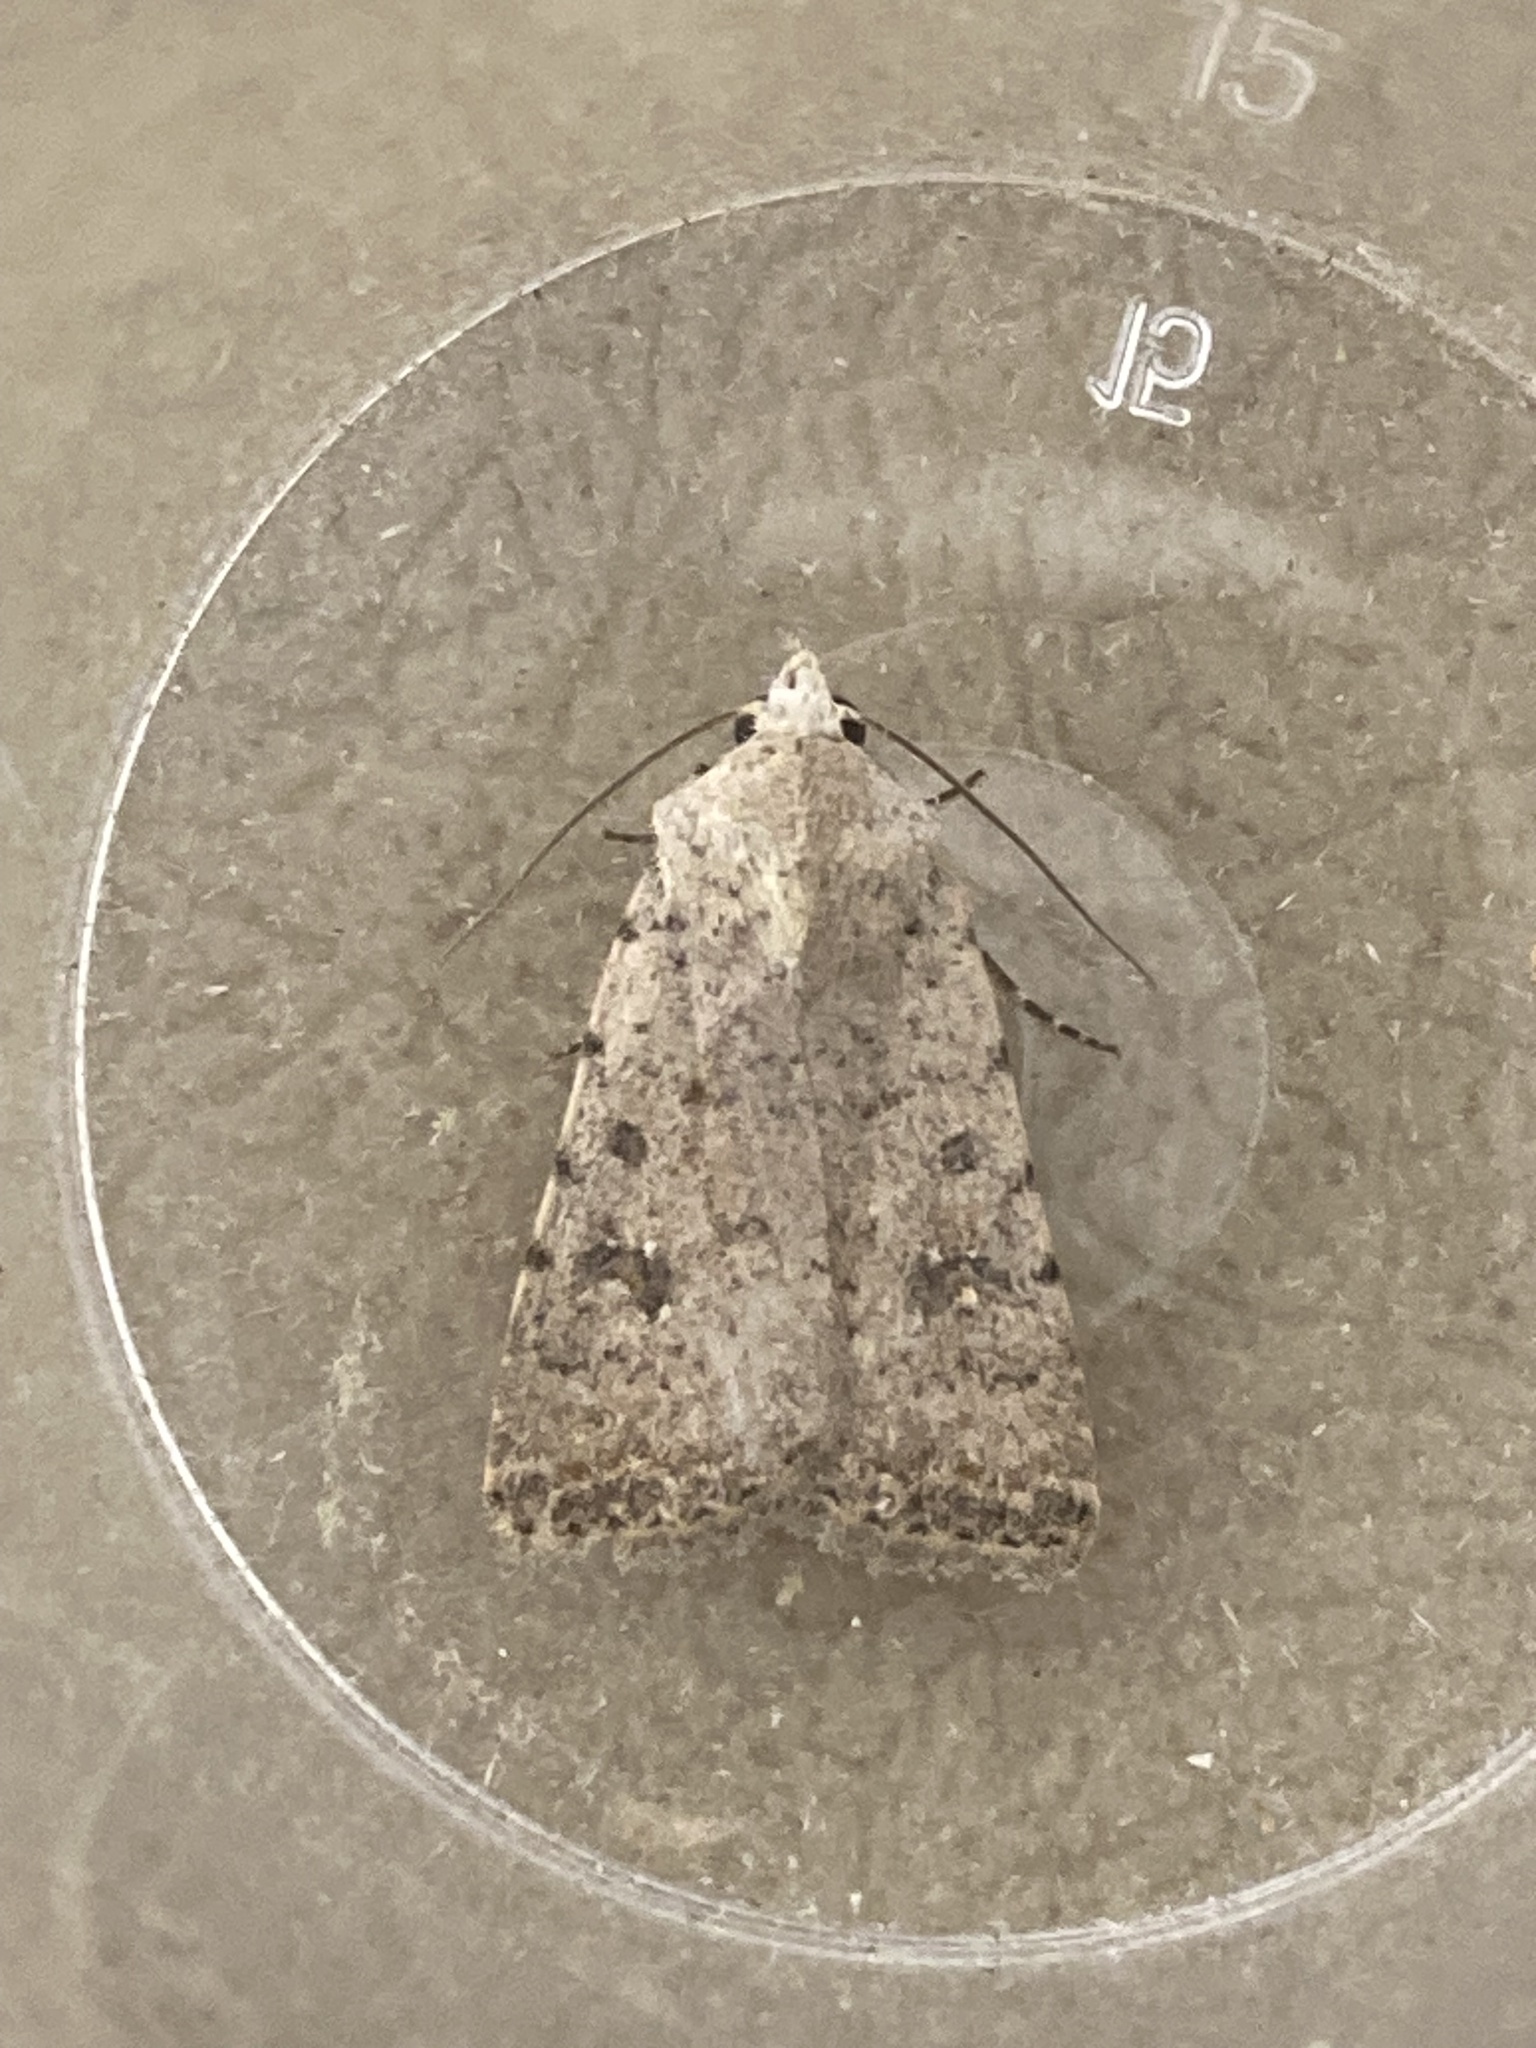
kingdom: Animalia
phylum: Arthropoda
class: Insecta
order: Lepidoptera
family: Noctuidae
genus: Caradrina
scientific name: Caradrina clavipalpis
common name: Pale mottled willow
